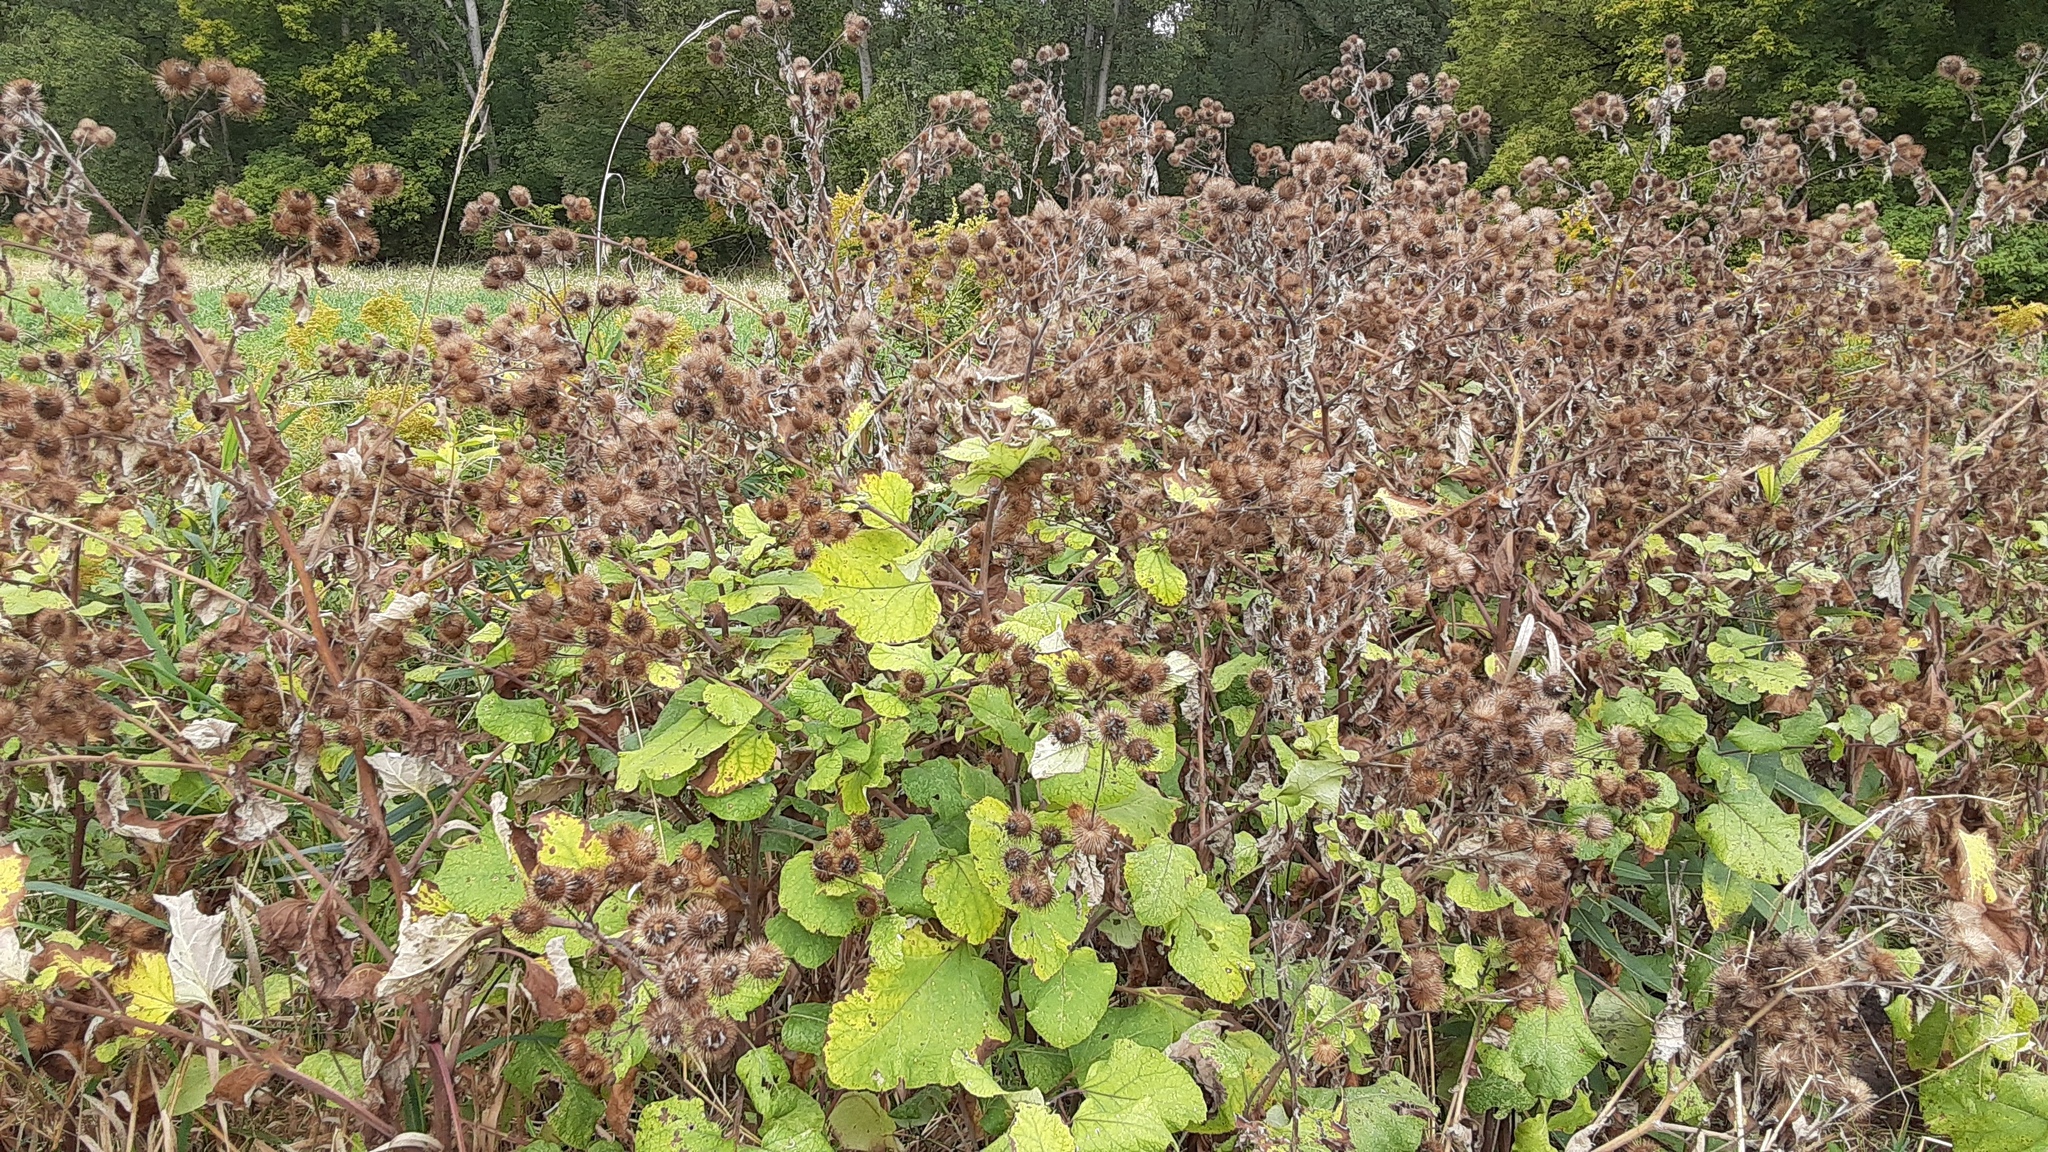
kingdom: Plantae
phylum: Tracheophyta
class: Magnoliopsida
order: Asterales
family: Asteraceae
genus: Arctium
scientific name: Arctium minus
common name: Lesser burdock
